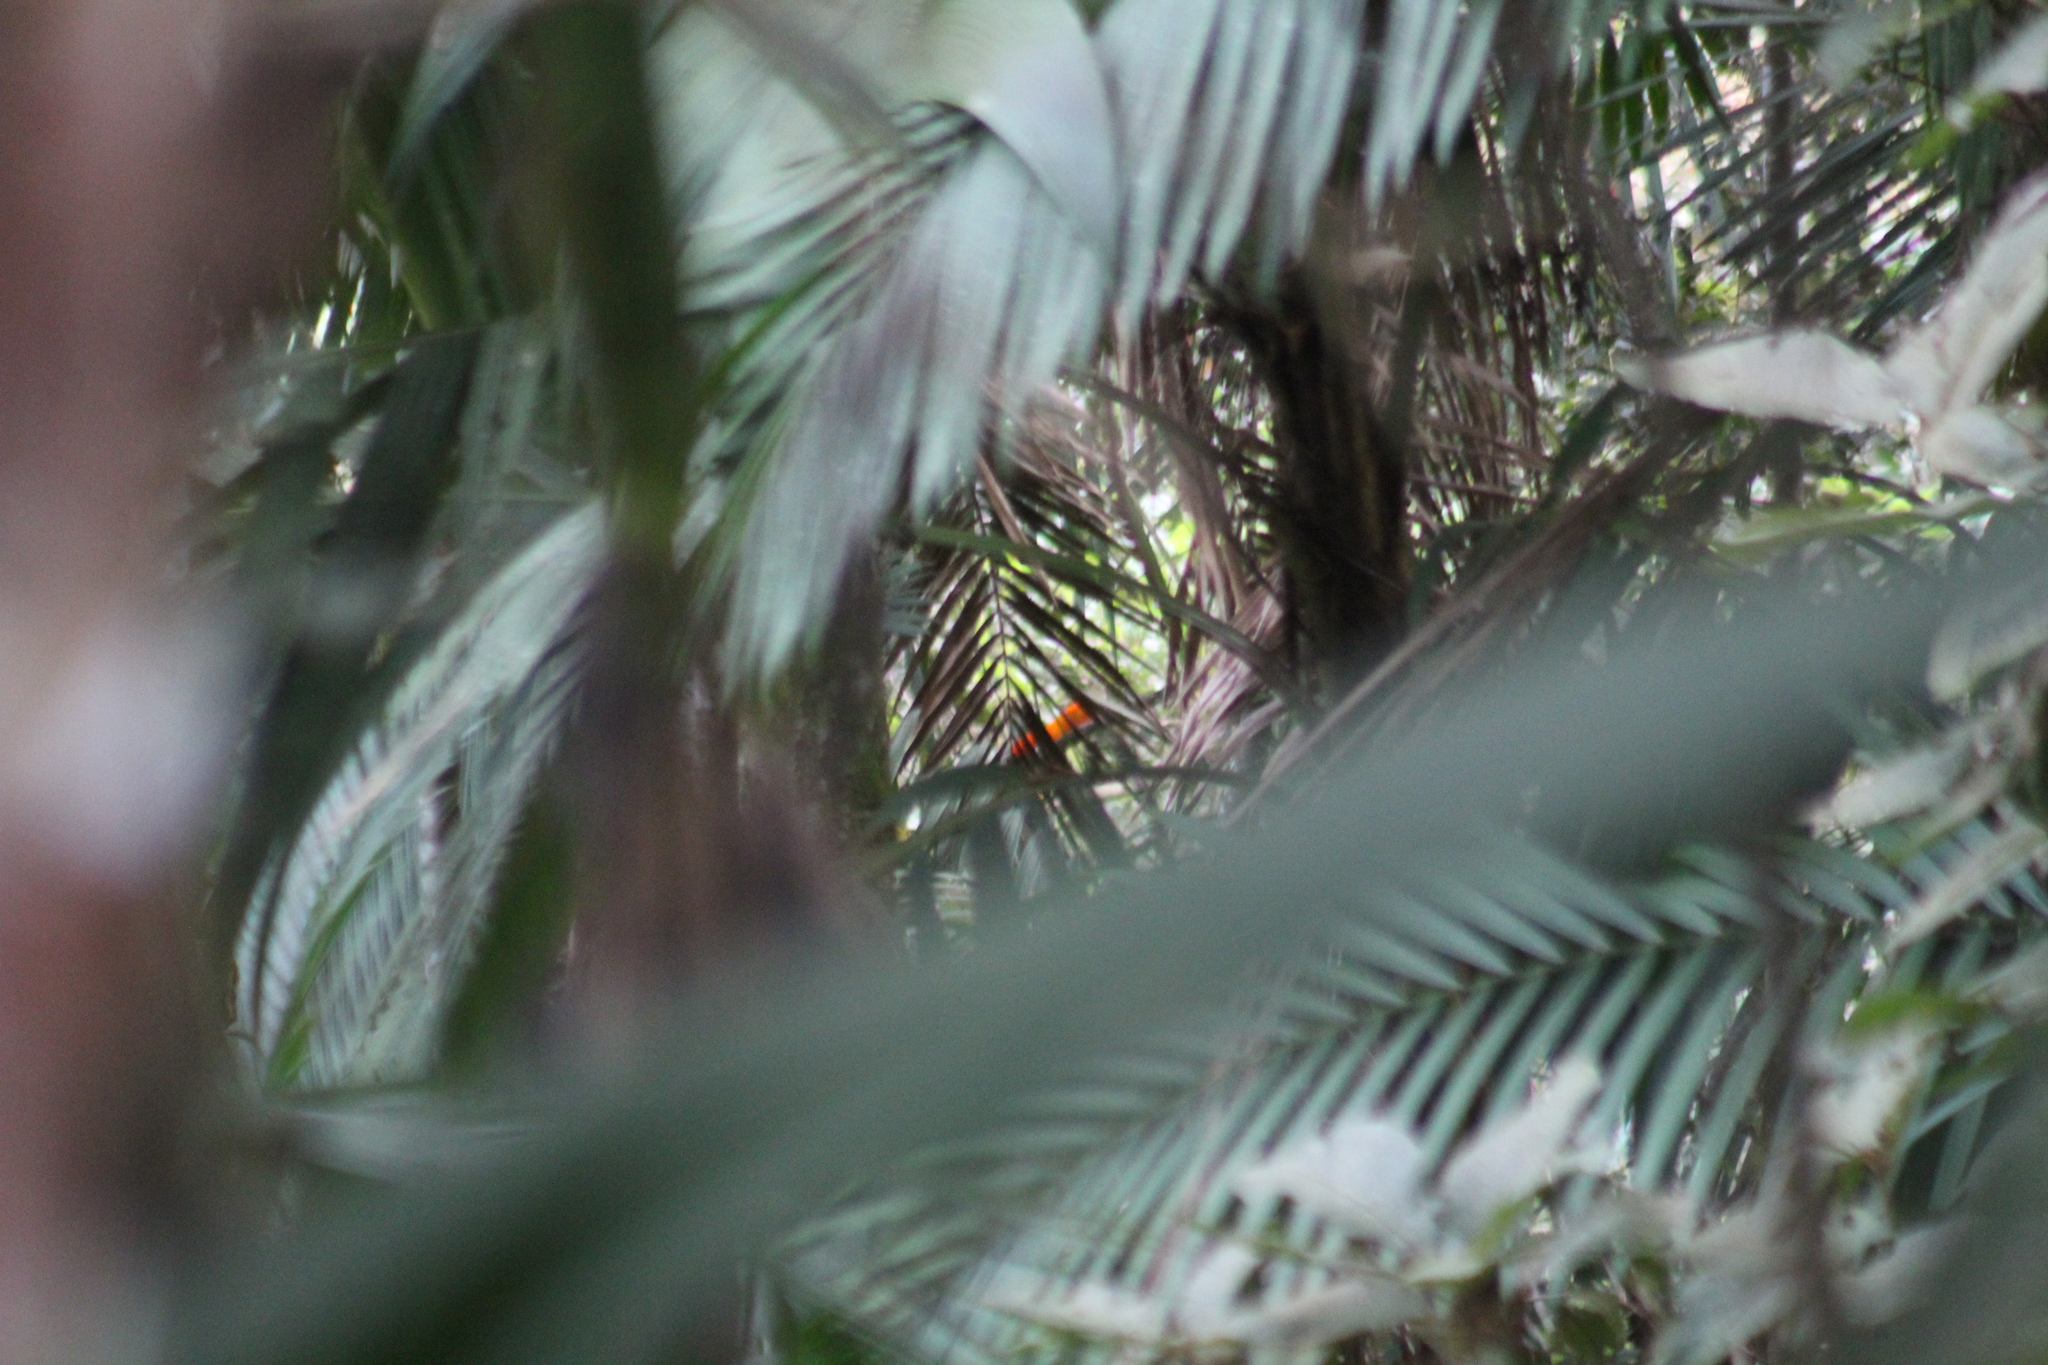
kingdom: Animalia
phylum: Chordata
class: Aves
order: Passeriformes
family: Cotingidae
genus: Rupicola
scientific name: Rupicola peruvianus
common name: Andean cock-of-the-rock
